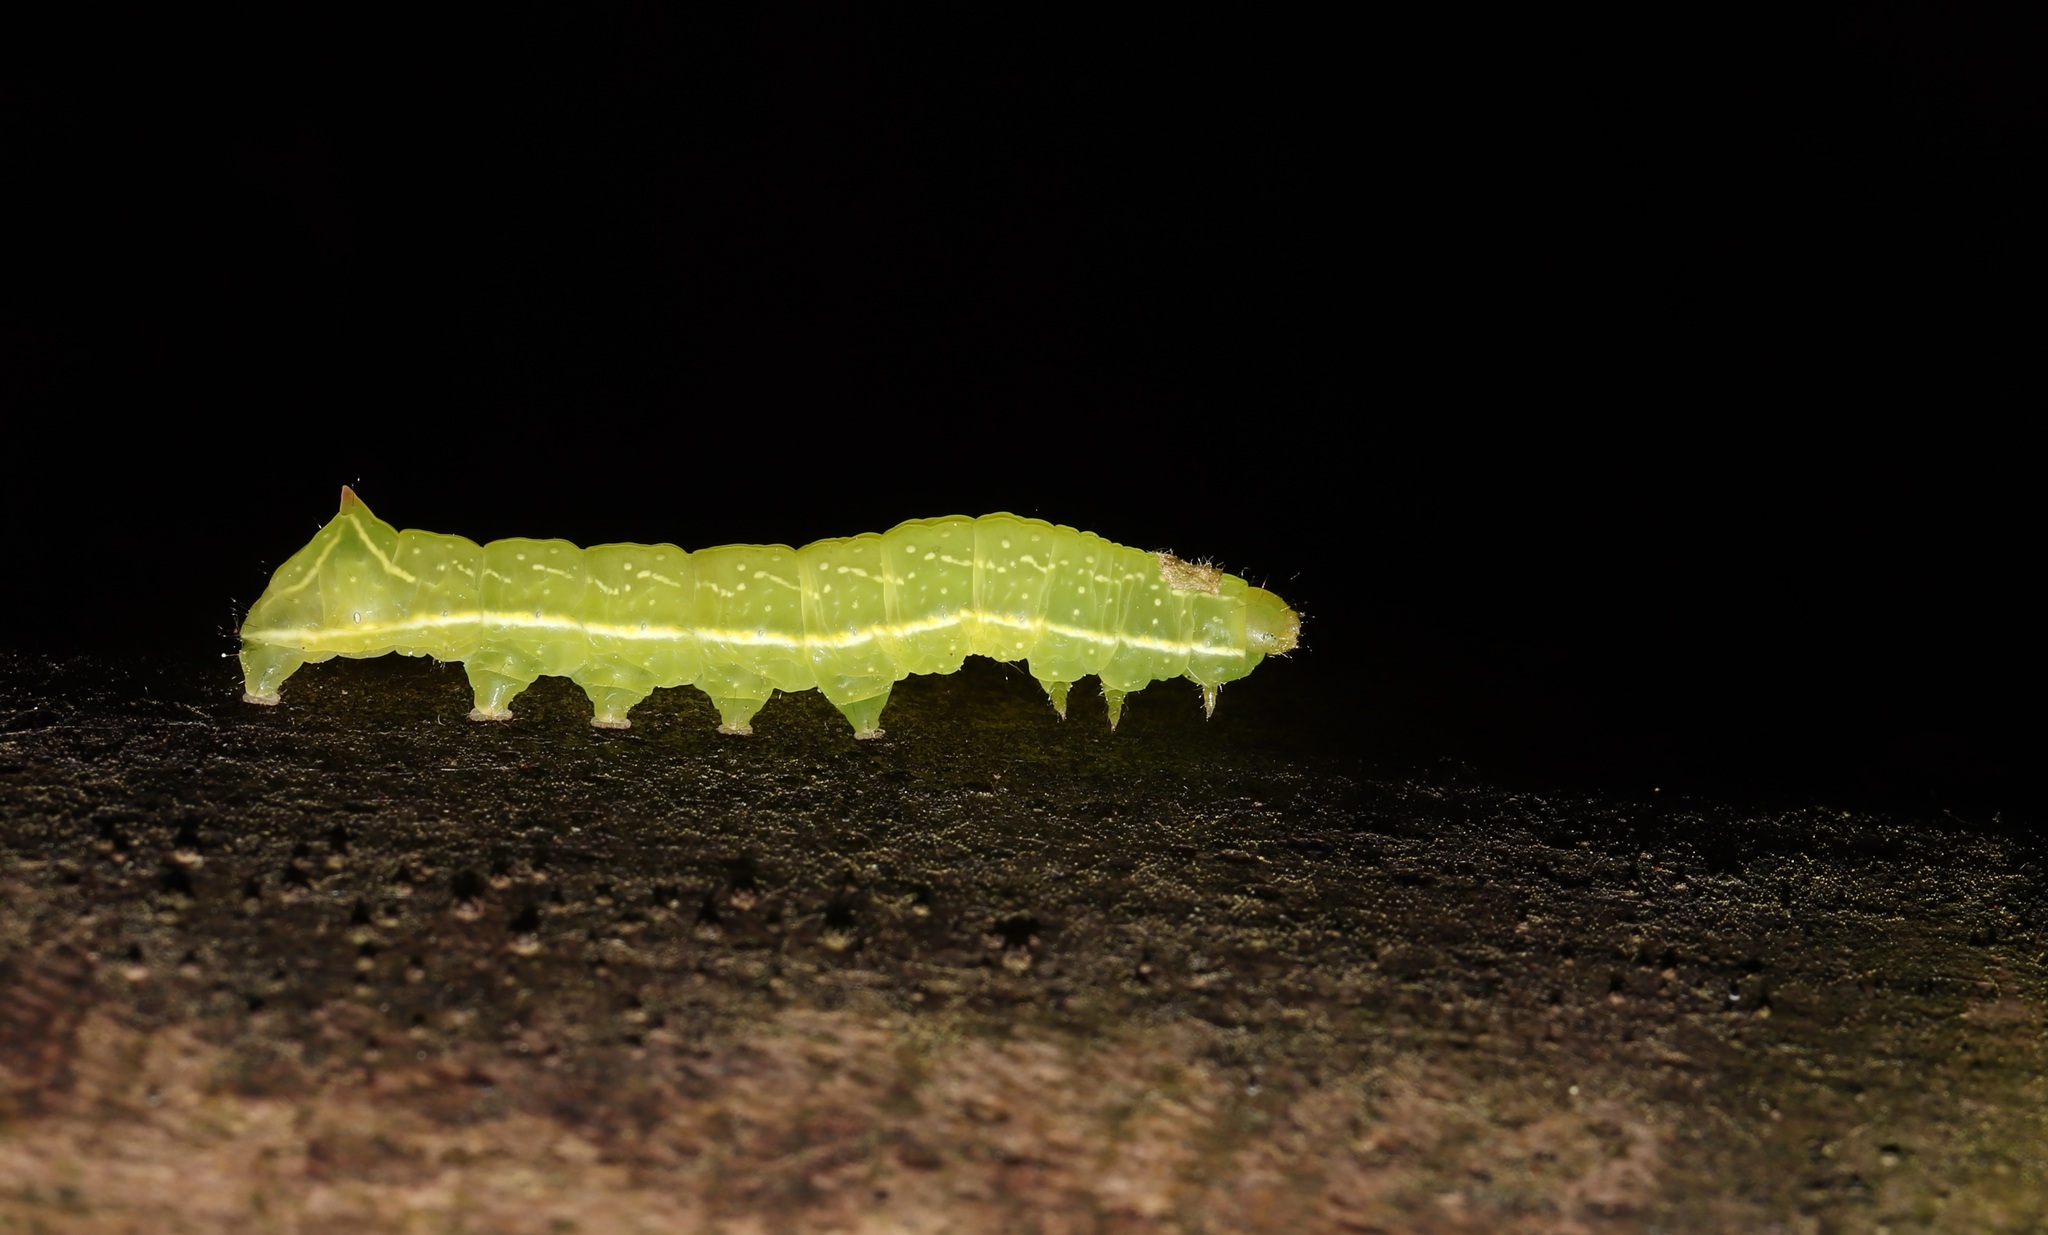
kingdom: Animalia
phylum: Arthropoda
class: Insecta
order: Lepidoptera
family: Noctuidae
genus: Amphipyra
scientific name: Amphipyra monolitha
